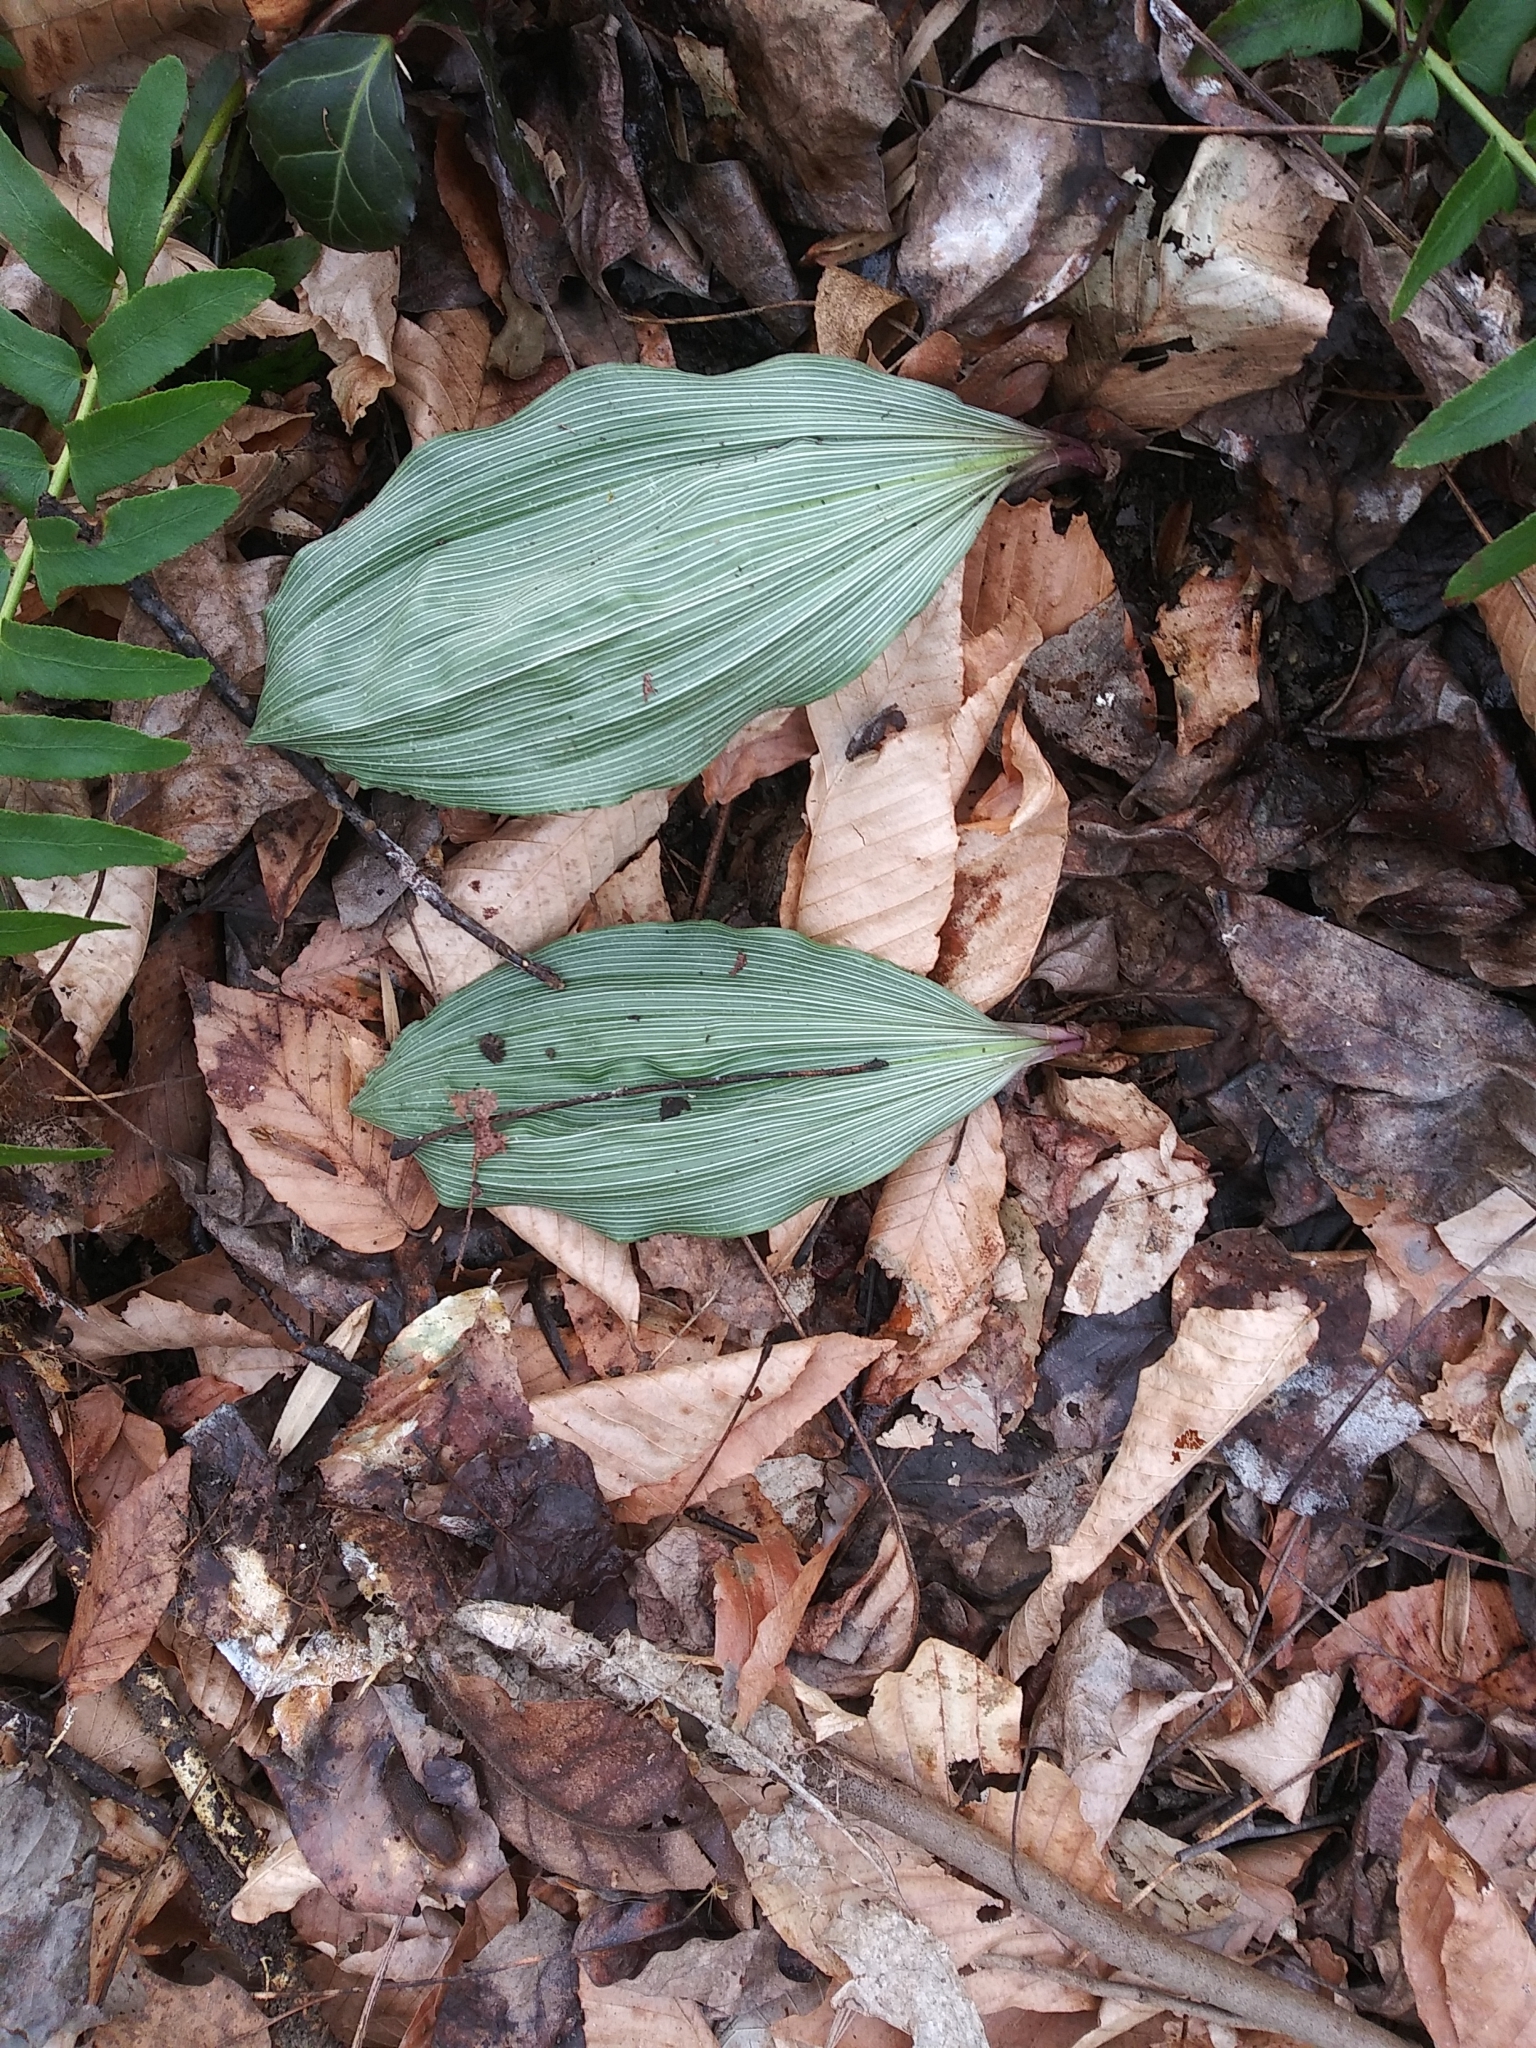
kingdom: Plantae
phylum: Tracheophyta
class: Liliopsida
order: Asparagales
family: Orchidaceae
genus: Aplectrum
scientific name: Aplectrum hyemale
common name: Adam-and-eve
